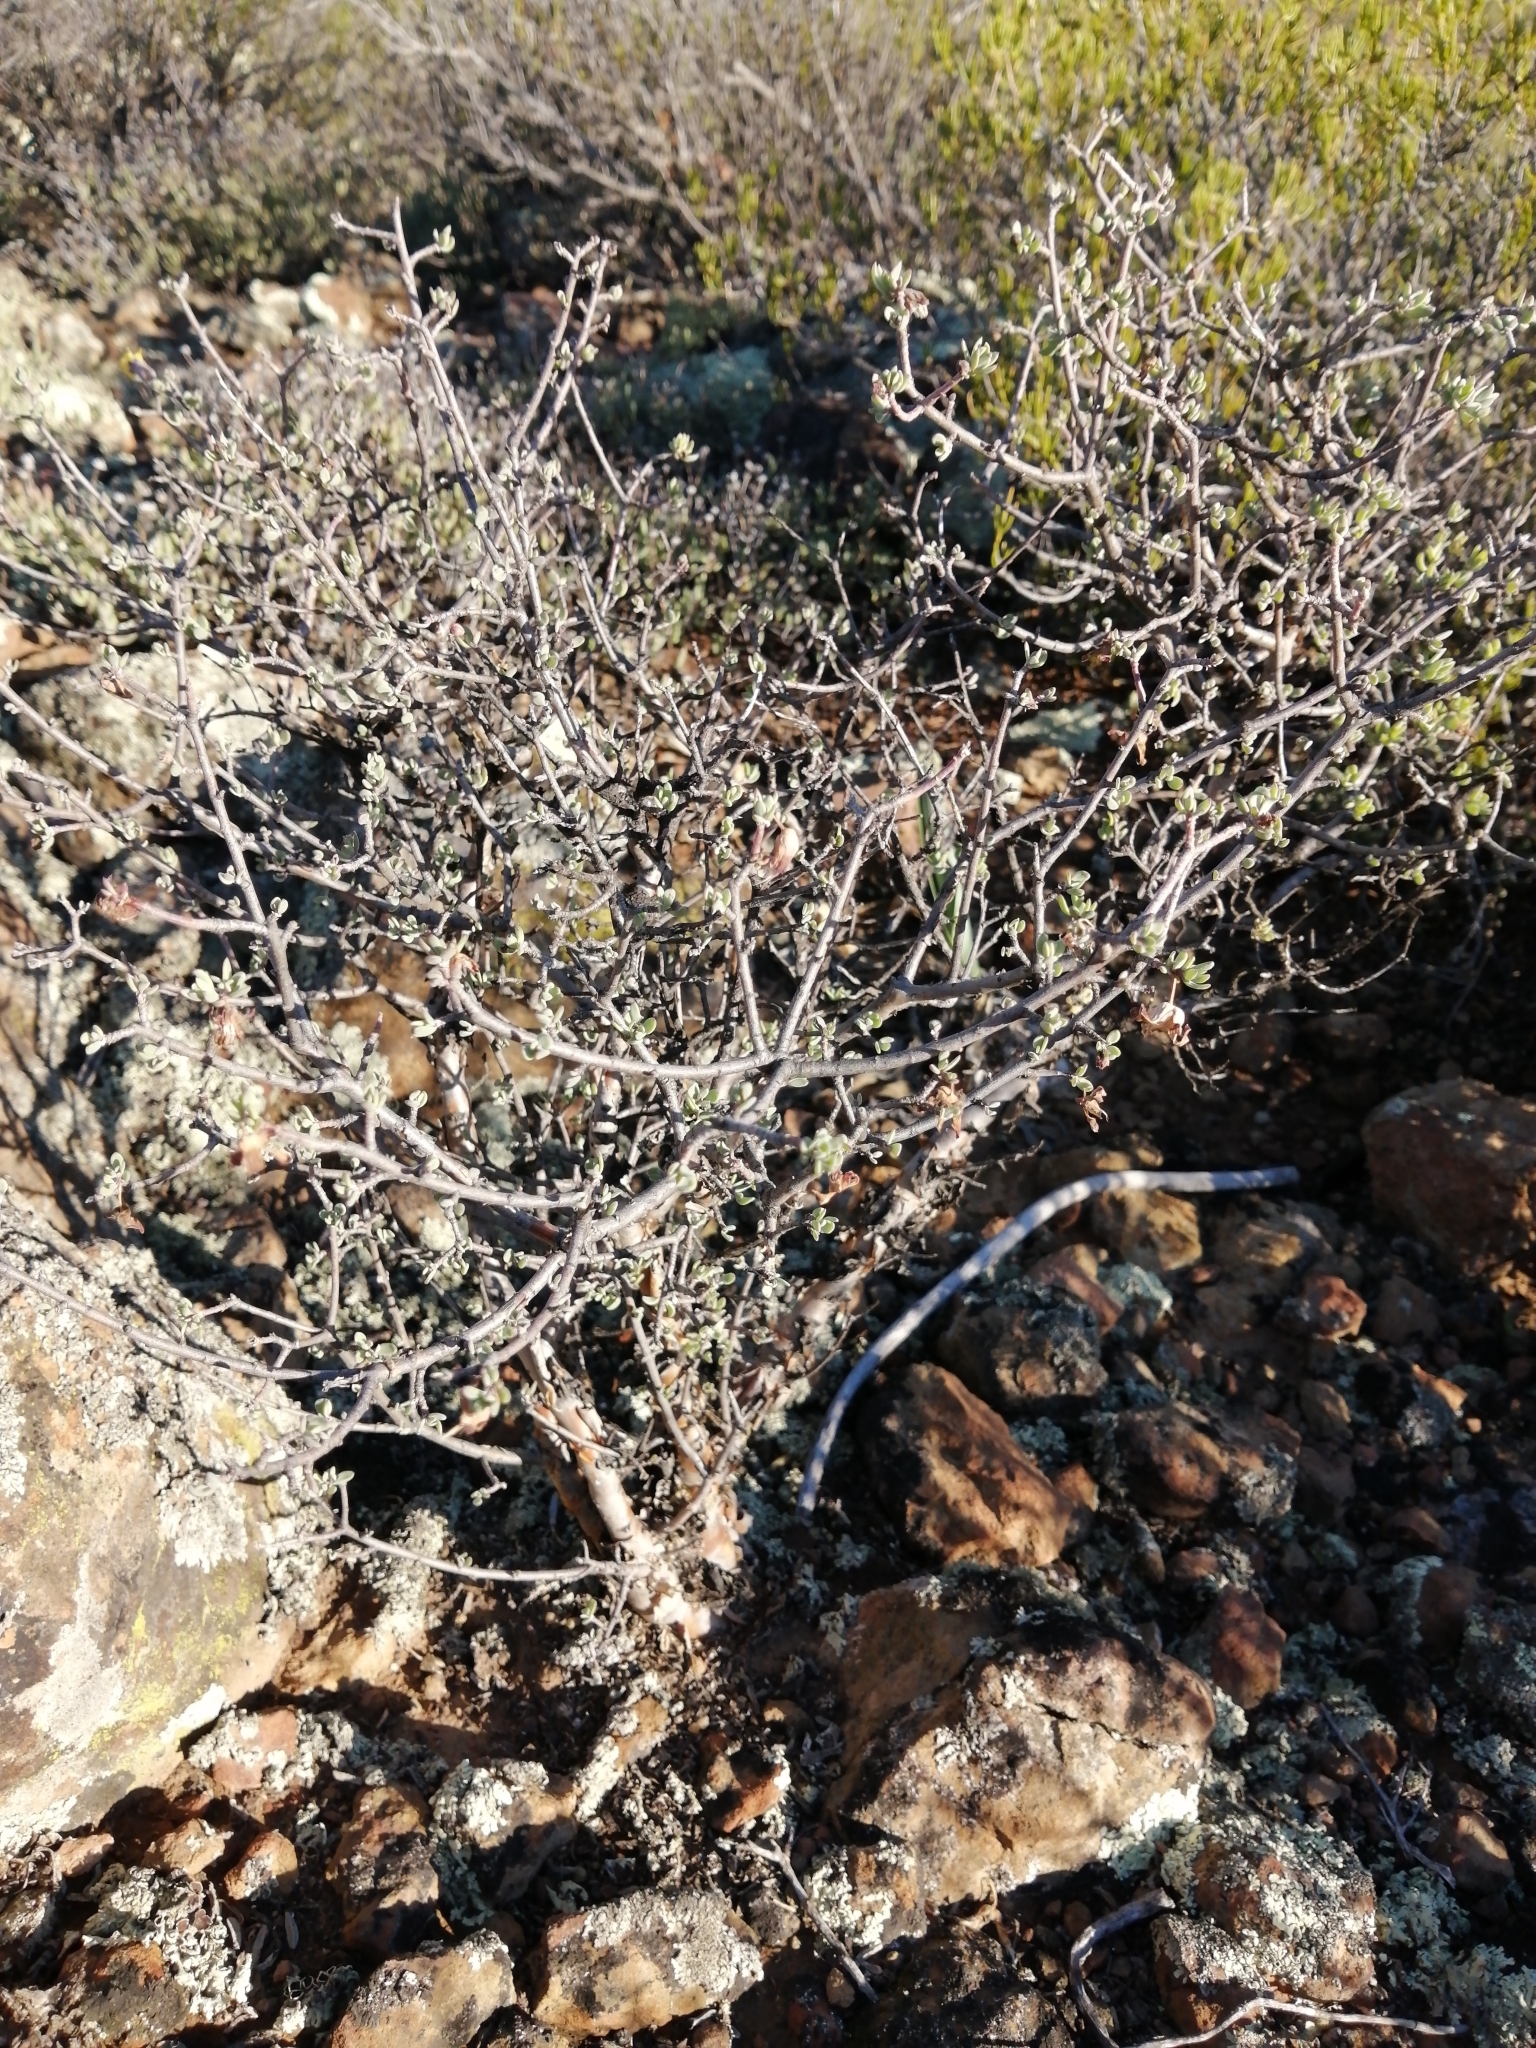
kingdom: Plantae
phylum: Tracheophyta
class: Magnoliopsida
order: Asterales
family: Asteraceae
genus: Othonna
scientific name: Othonna arbuscula
